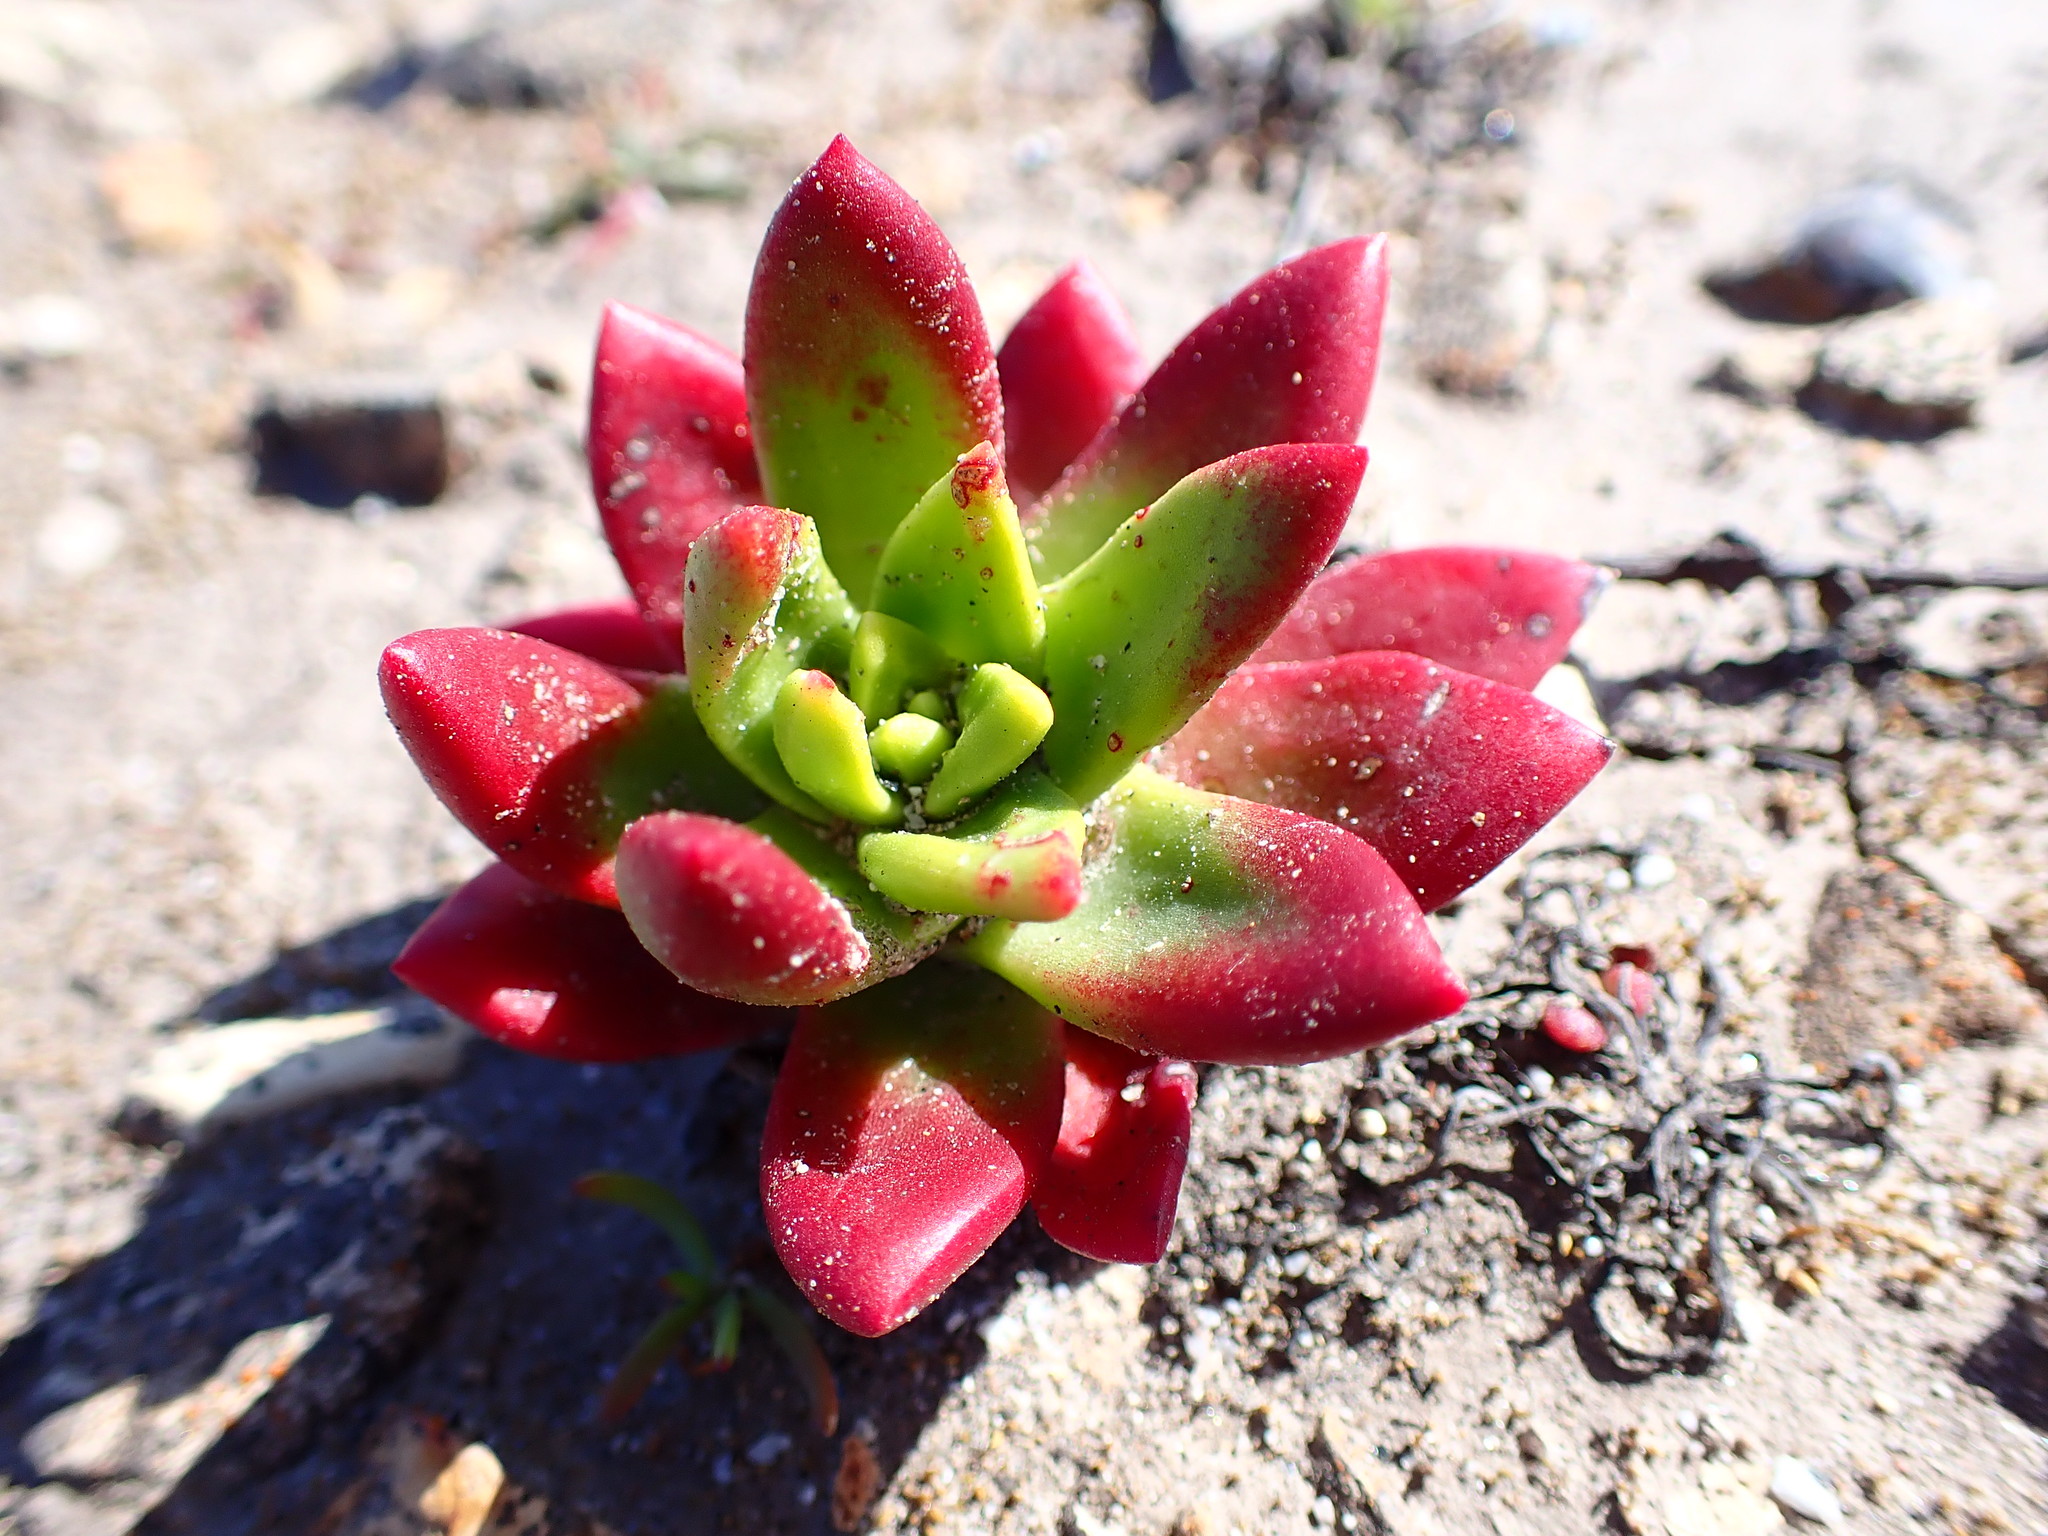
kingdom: Plantae
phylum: Tracheophyta
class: Magnoliopsida
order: Saxifragales
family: Crassulaceae
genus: Dudleya
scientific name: Dudleya farinosa
